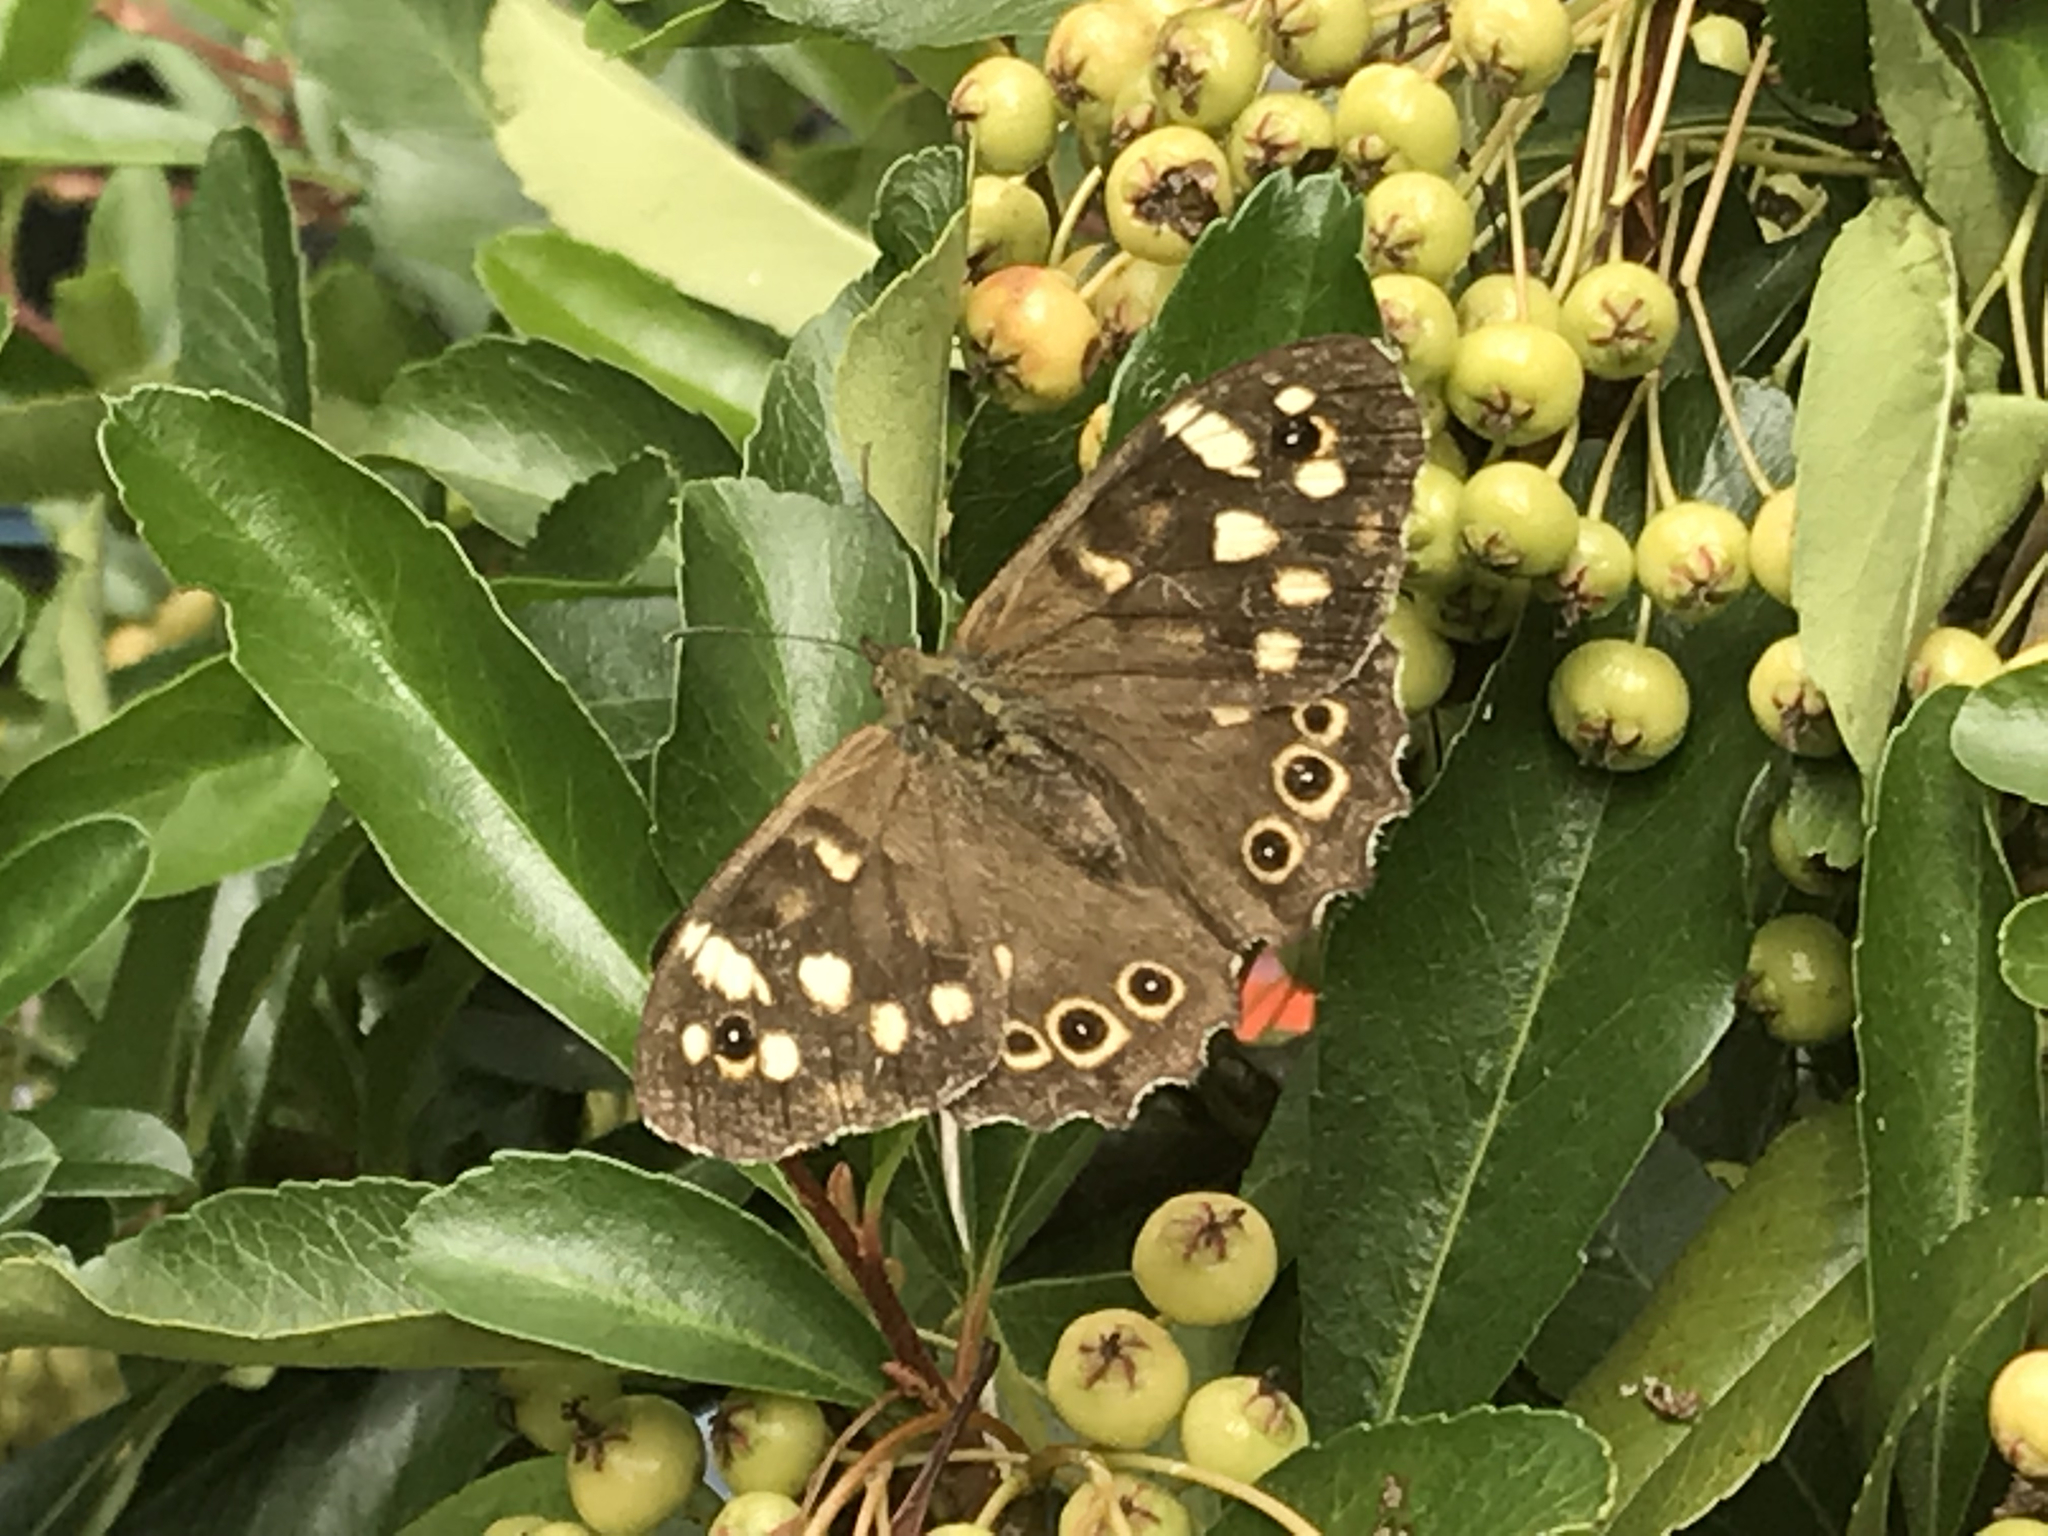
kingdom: Animalia
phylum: Arthropoda
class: Insecta
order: Lepidoptera
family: Nymphalidae
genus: Pararge
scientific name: Pararge aegeria
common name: Speckled wood
